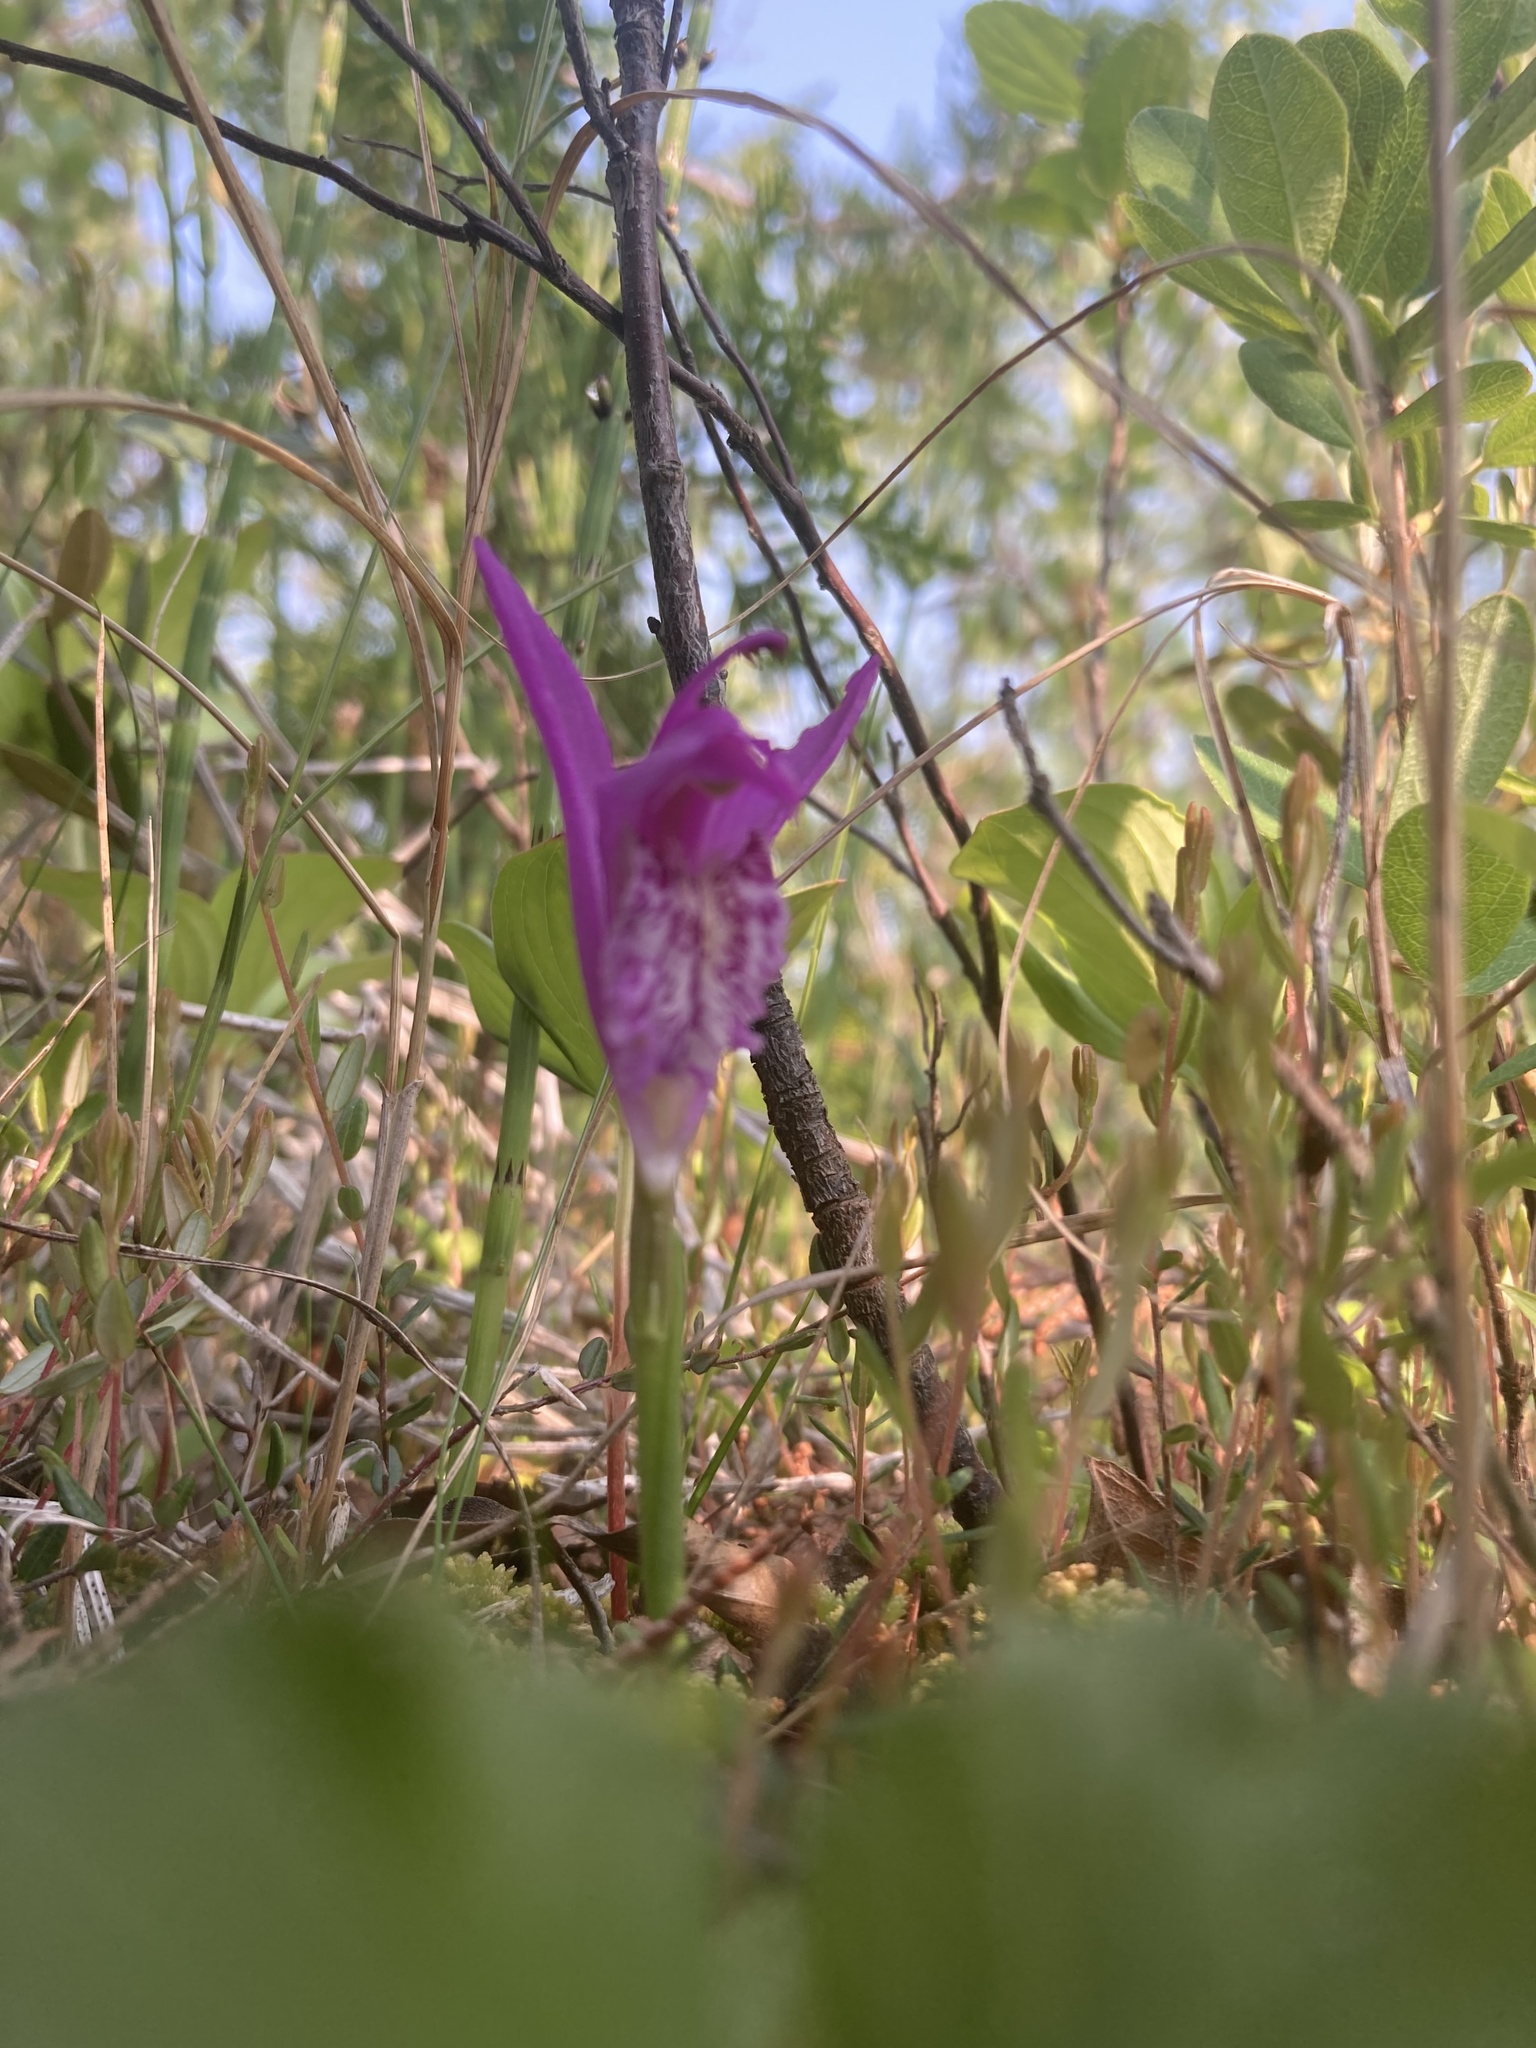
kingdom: Plantae
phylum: Tracheophyta
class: Liliopsida
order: Asparagales
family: Orchidaceae
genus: Arethusa
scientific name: Arethusa bulbosa
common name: Arethusa
